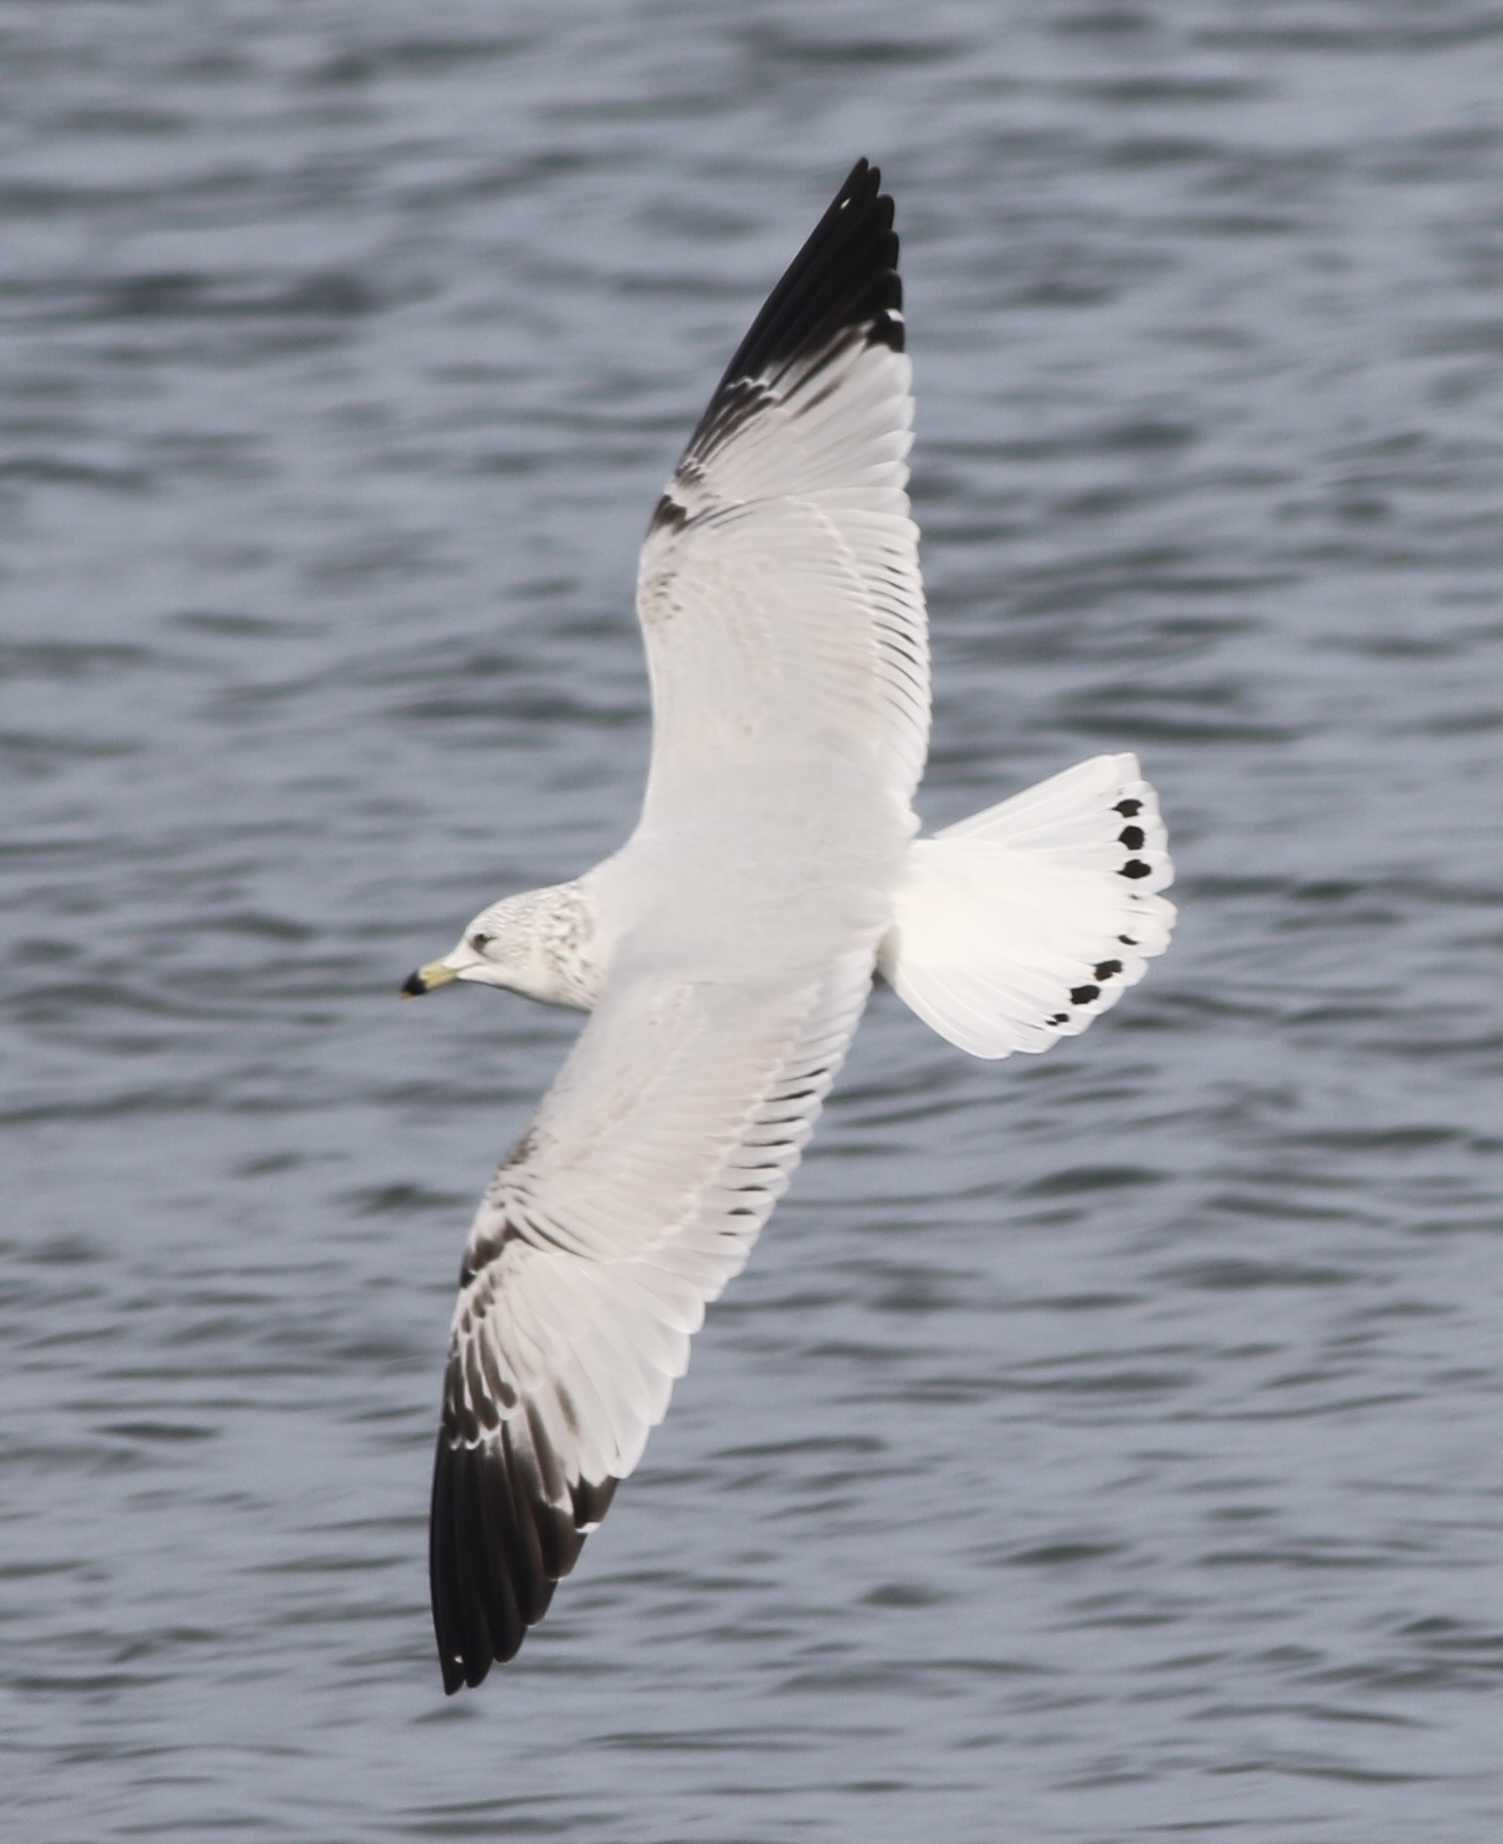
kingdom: Animalia
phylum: Chordata
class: Aves
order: Charadriiformes
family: Laridae
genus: Larus
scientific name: Larus delawarensis
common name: Ring-billed gull
